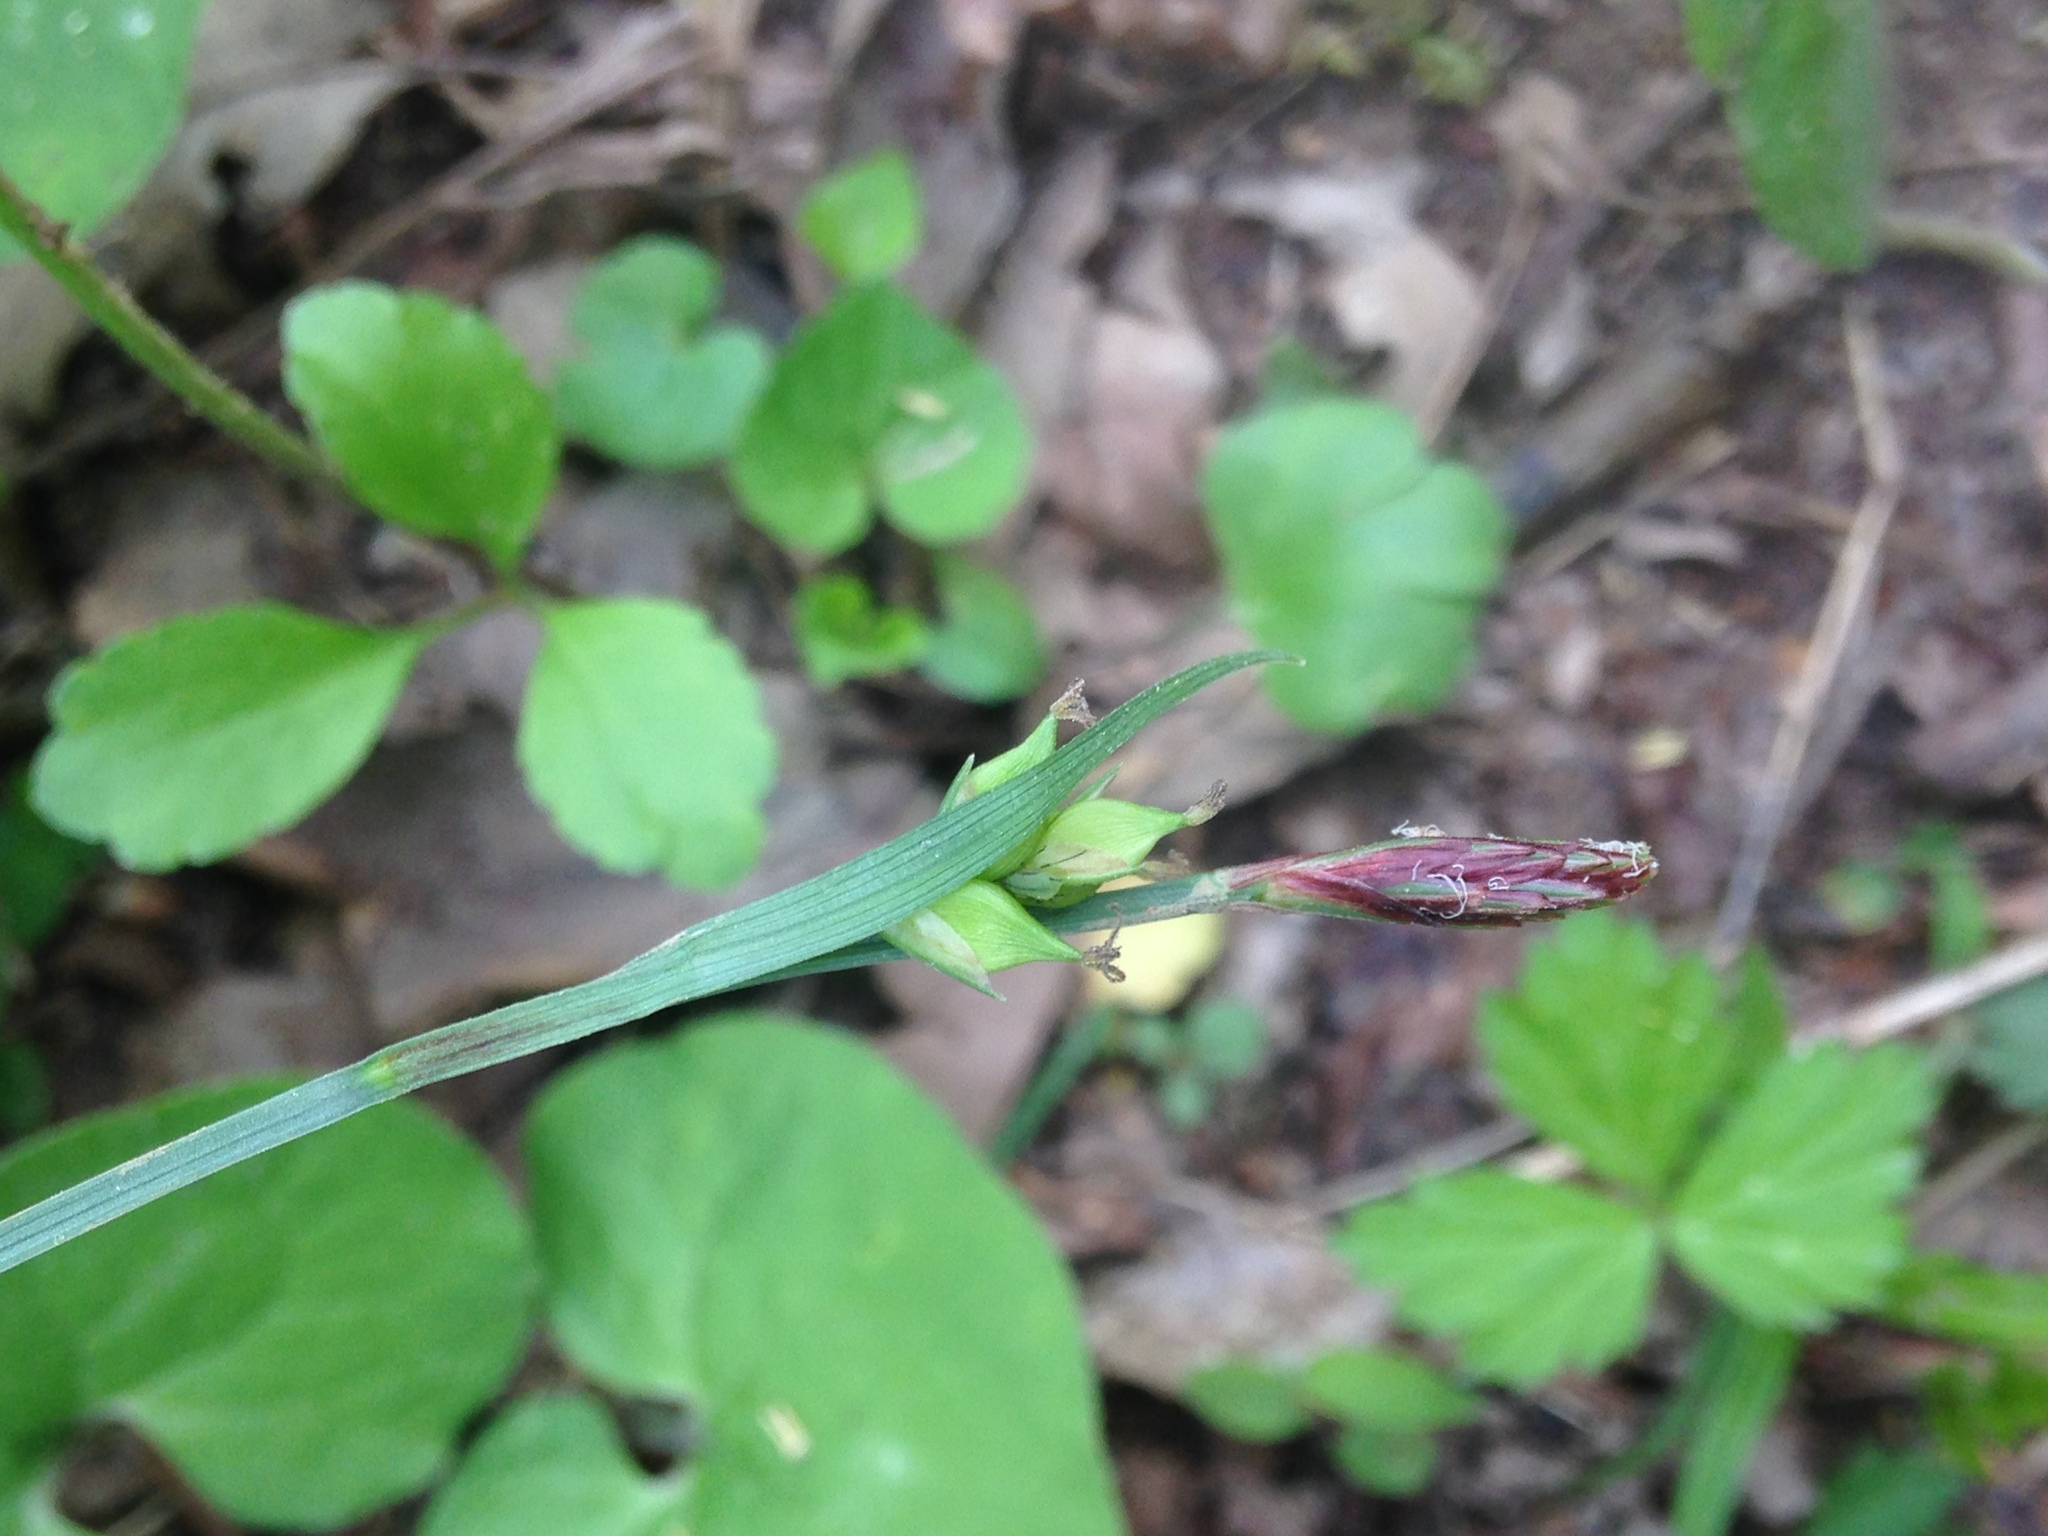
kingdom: Plantae
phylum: Tracheophyta
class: Liliopsida
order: Poales
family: Cyperaceae
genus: Carex
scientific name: Carex careyana
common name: Carey's sedge
